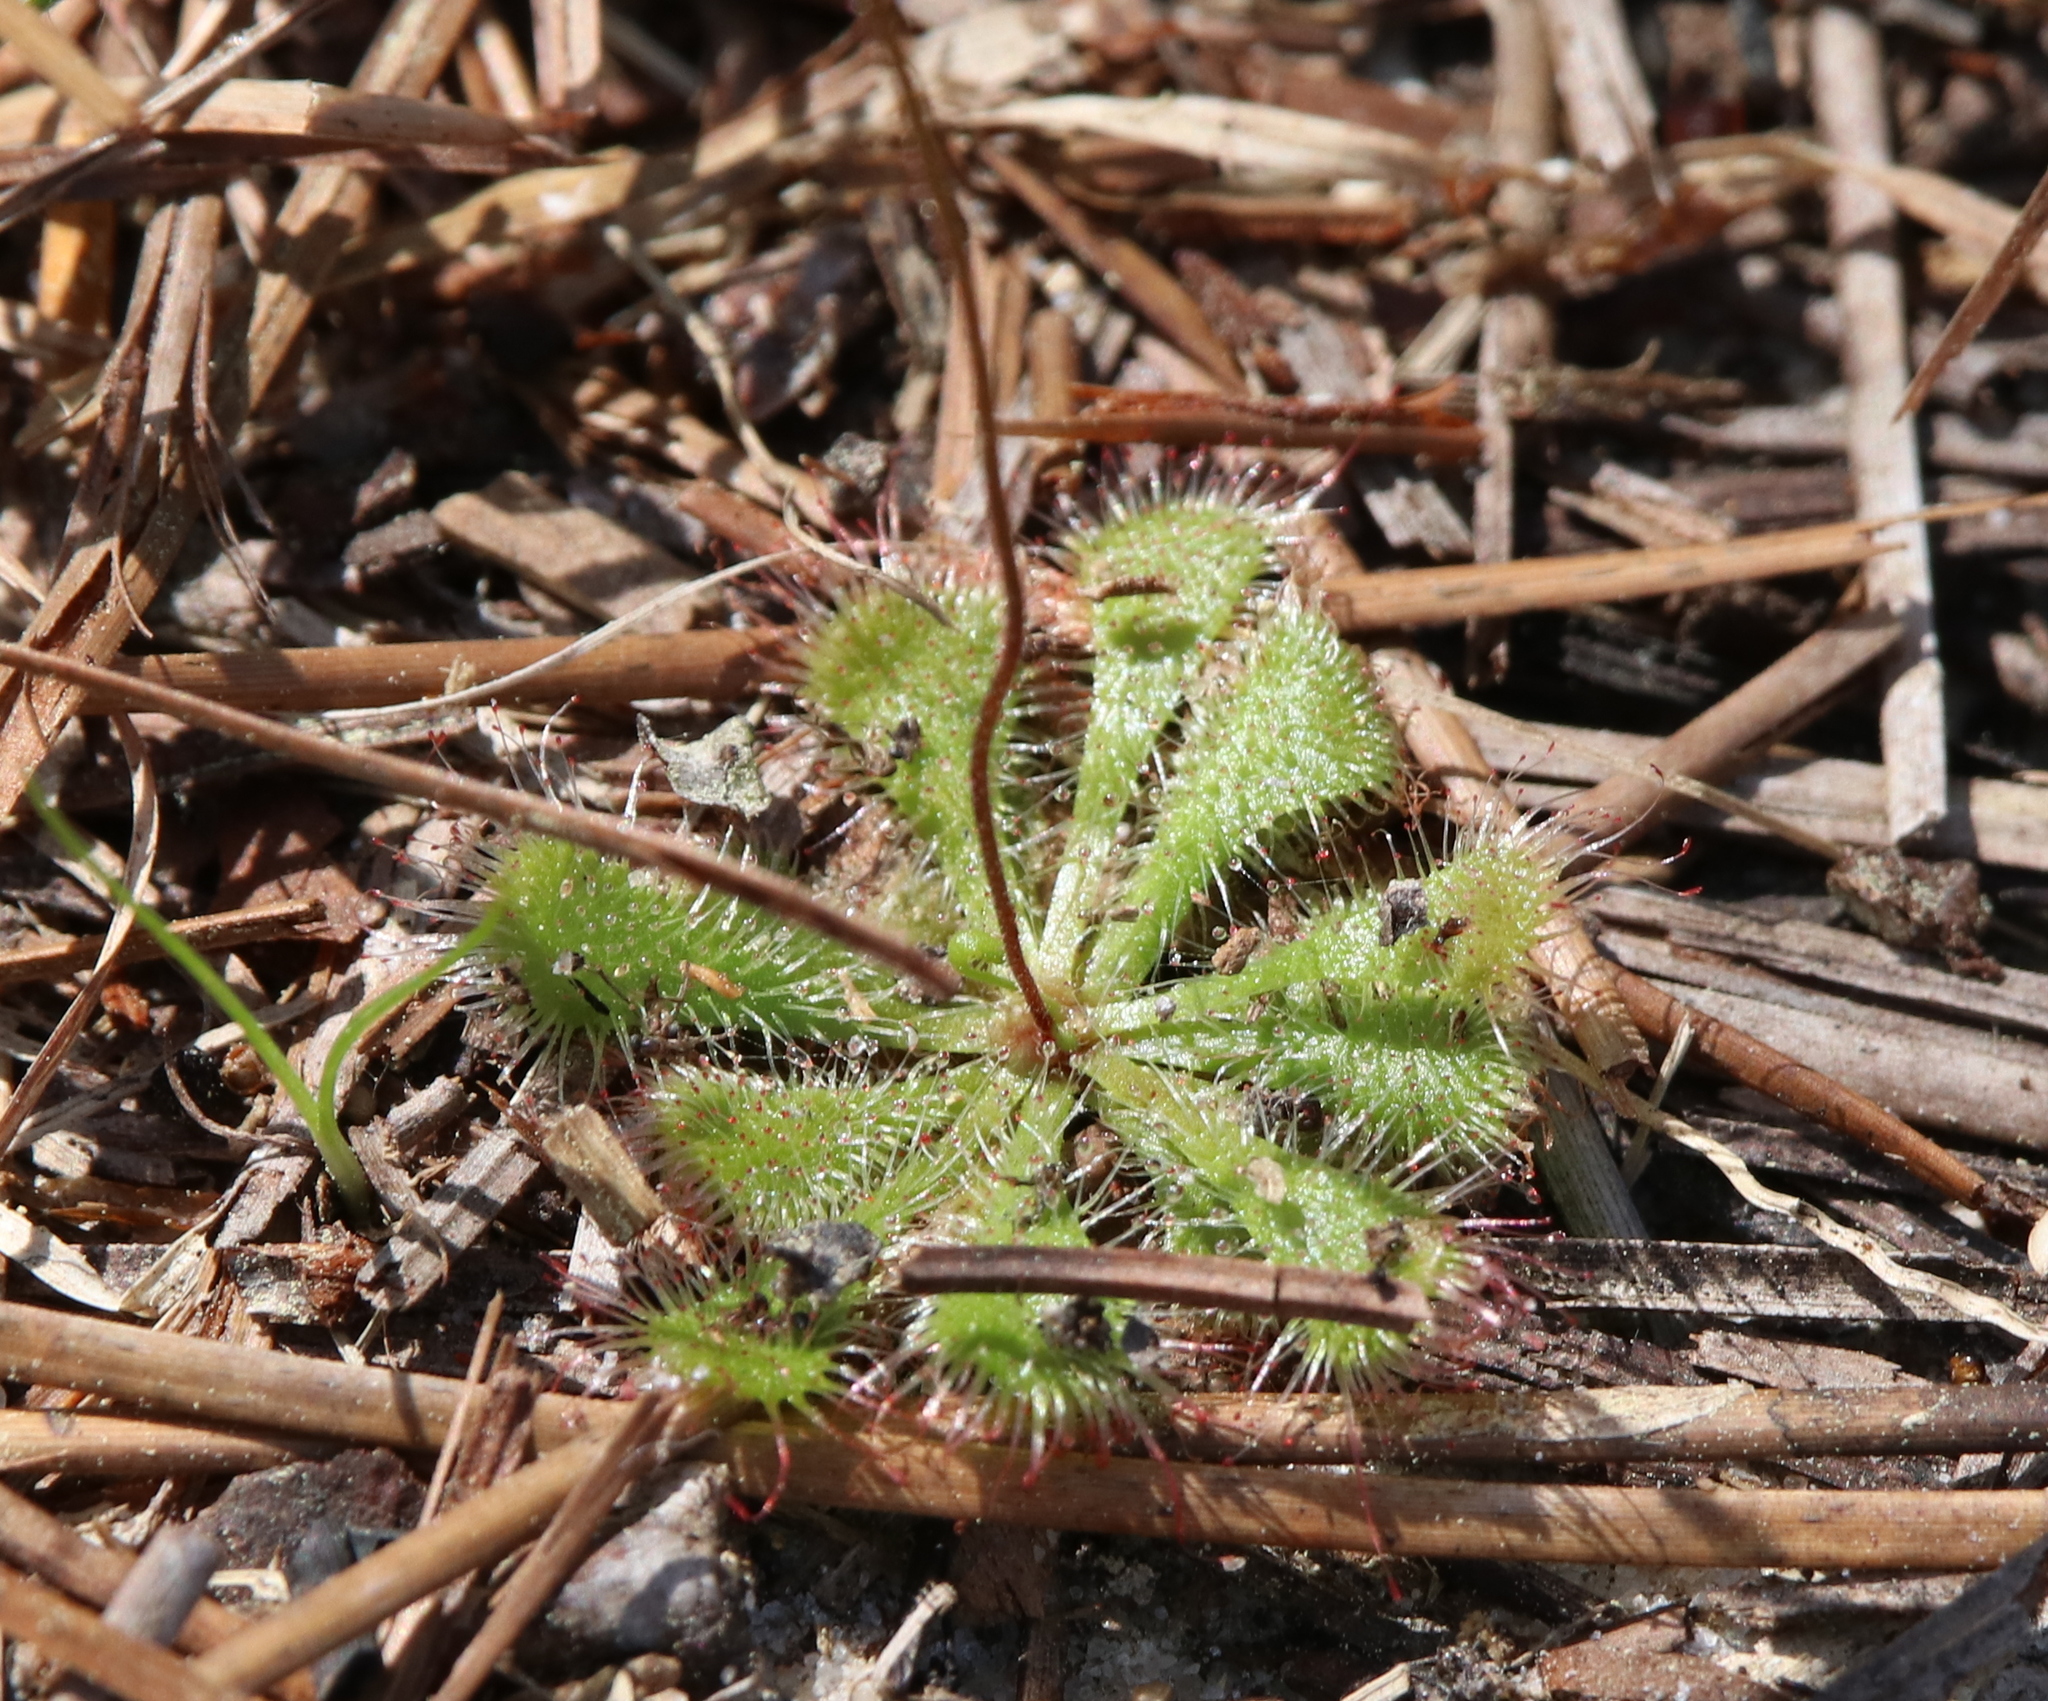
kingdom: Plantae
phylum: Tracheophyta
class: Magnoliopsida
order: Caryophyllales
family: Droseraceae
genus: Drosera
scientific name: Drosera brevifolia
